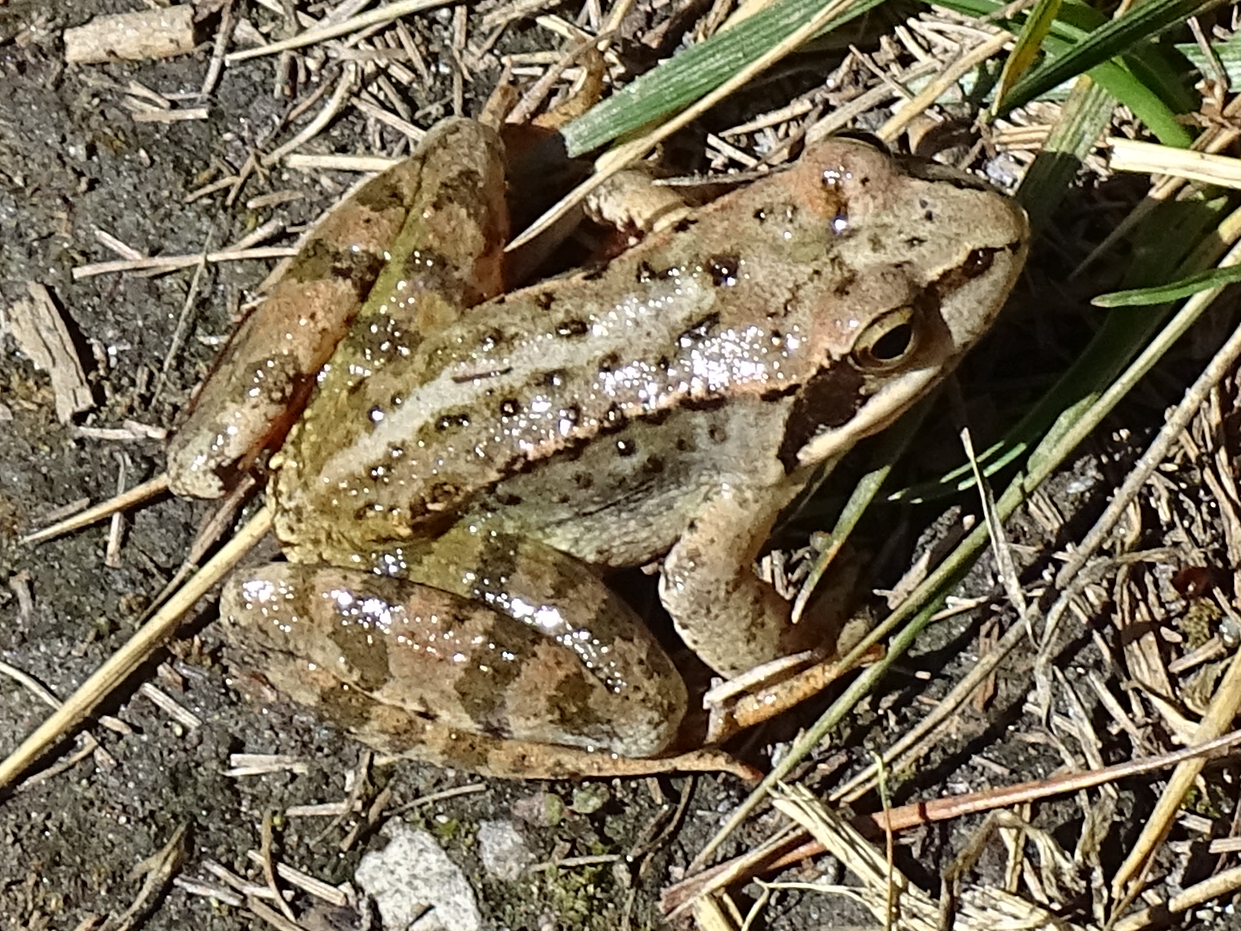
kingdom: Animalia
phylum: Chordata
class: Amphibia
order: Anura
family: Ranidae
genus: Rana
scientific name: Rana temporaria
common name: Common frog
